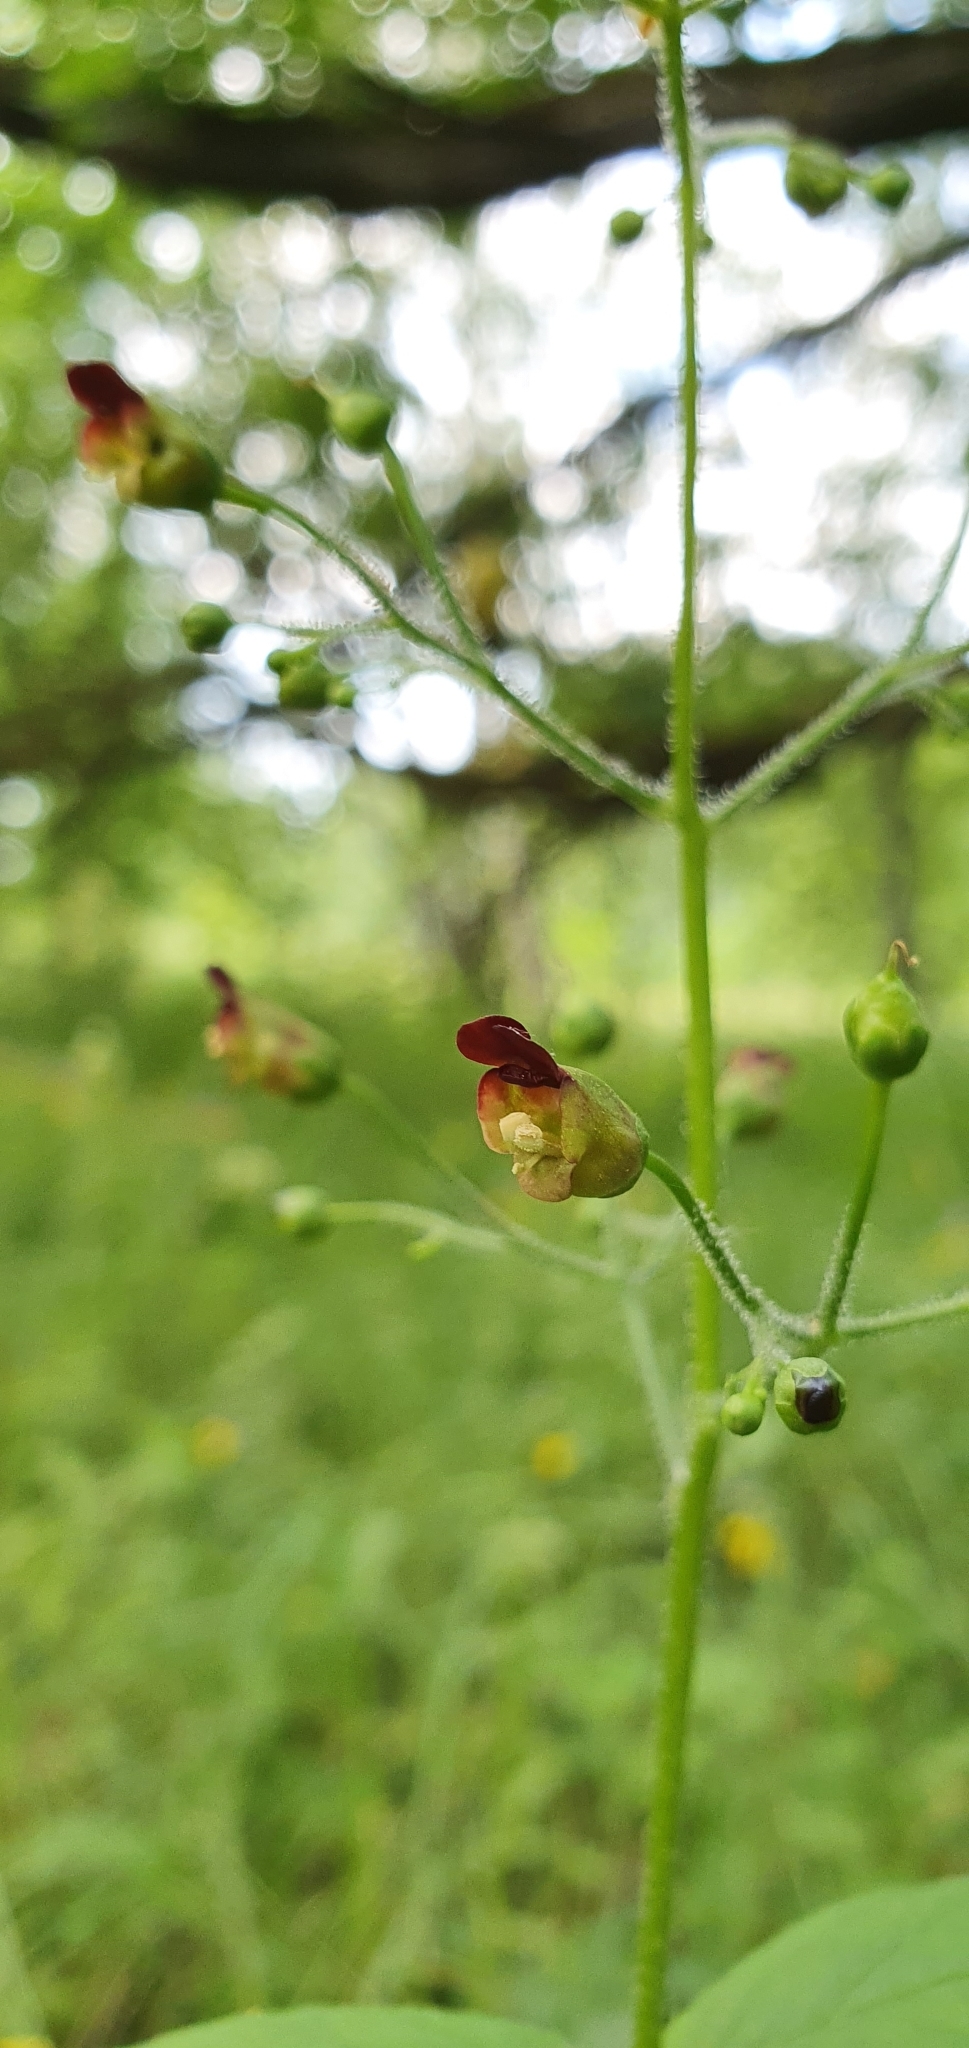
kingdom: Plantae
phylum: Tracheophyta
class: Magnoliopsida
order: Lamiales
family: Scrophulariaceae
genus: Scrophularia
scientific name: Scrophularia nodosa
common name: Common figwort
